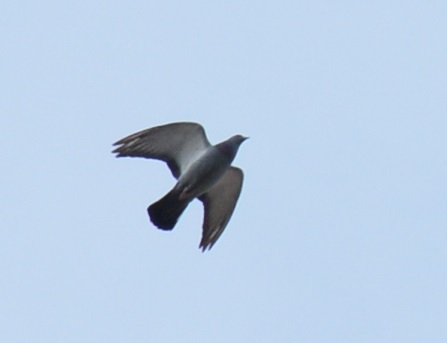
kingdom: Animalia
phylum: Chordata
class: Aves
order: Columbiformes
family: Columbidae
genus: Columba
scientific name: Columba livia
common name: Rock pigeon
